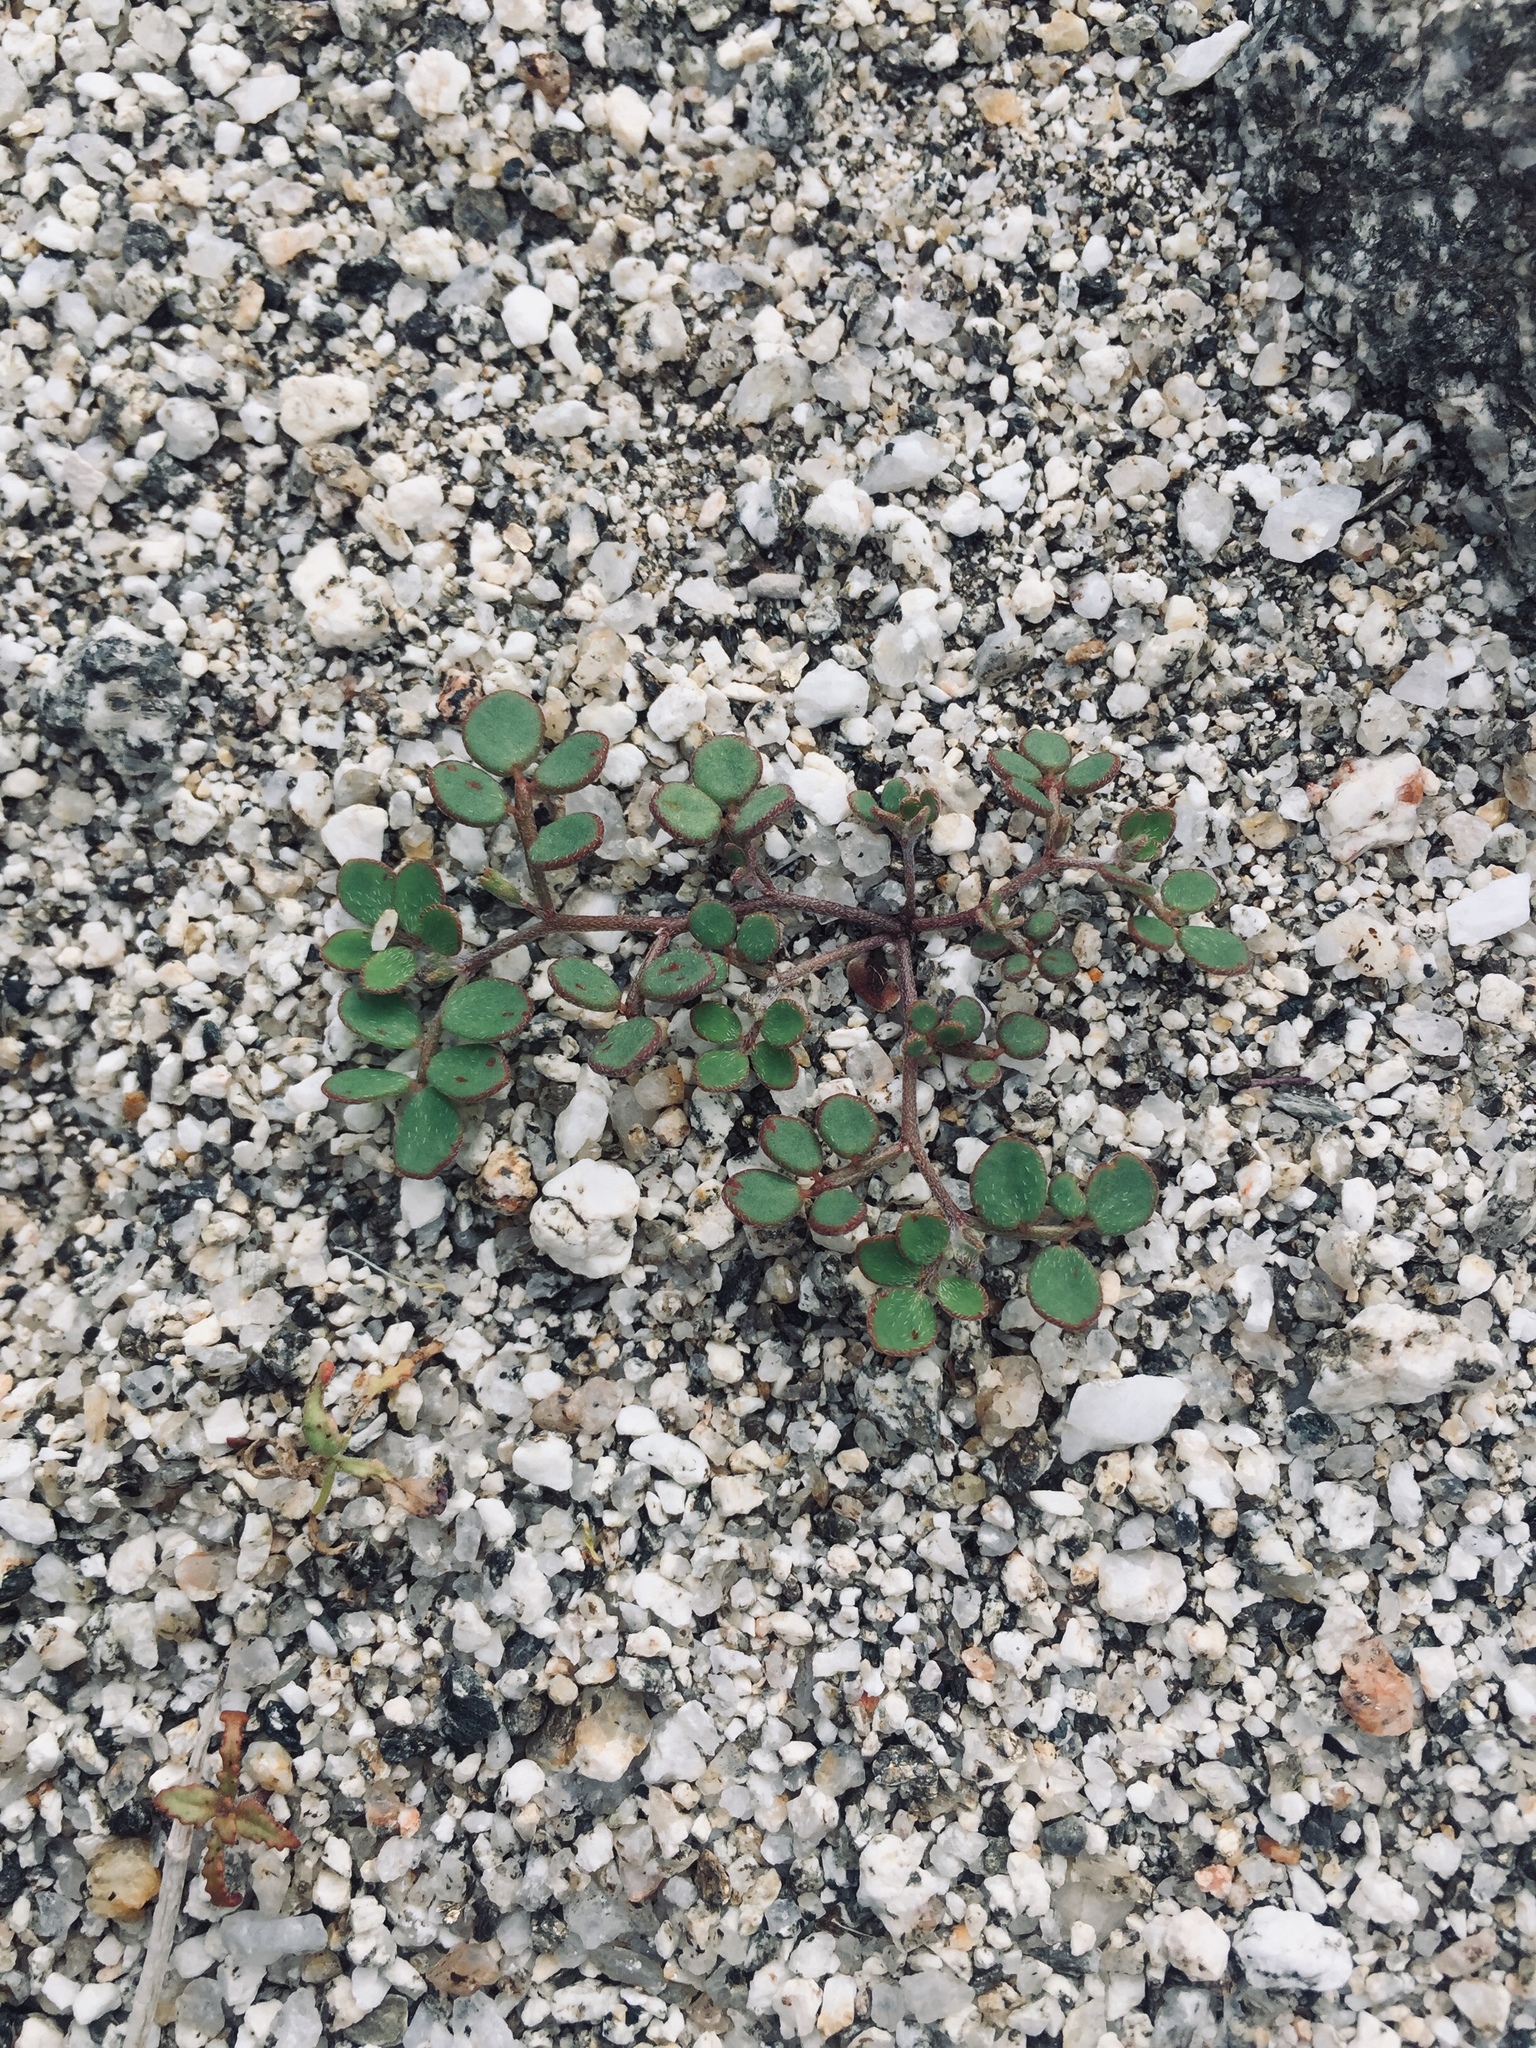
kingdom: Plantae
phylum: Tracheophyta
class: Magnoliopsida
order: Fabales
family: Fabaceae
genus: Acmispon
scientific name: Acmispon maritimus
